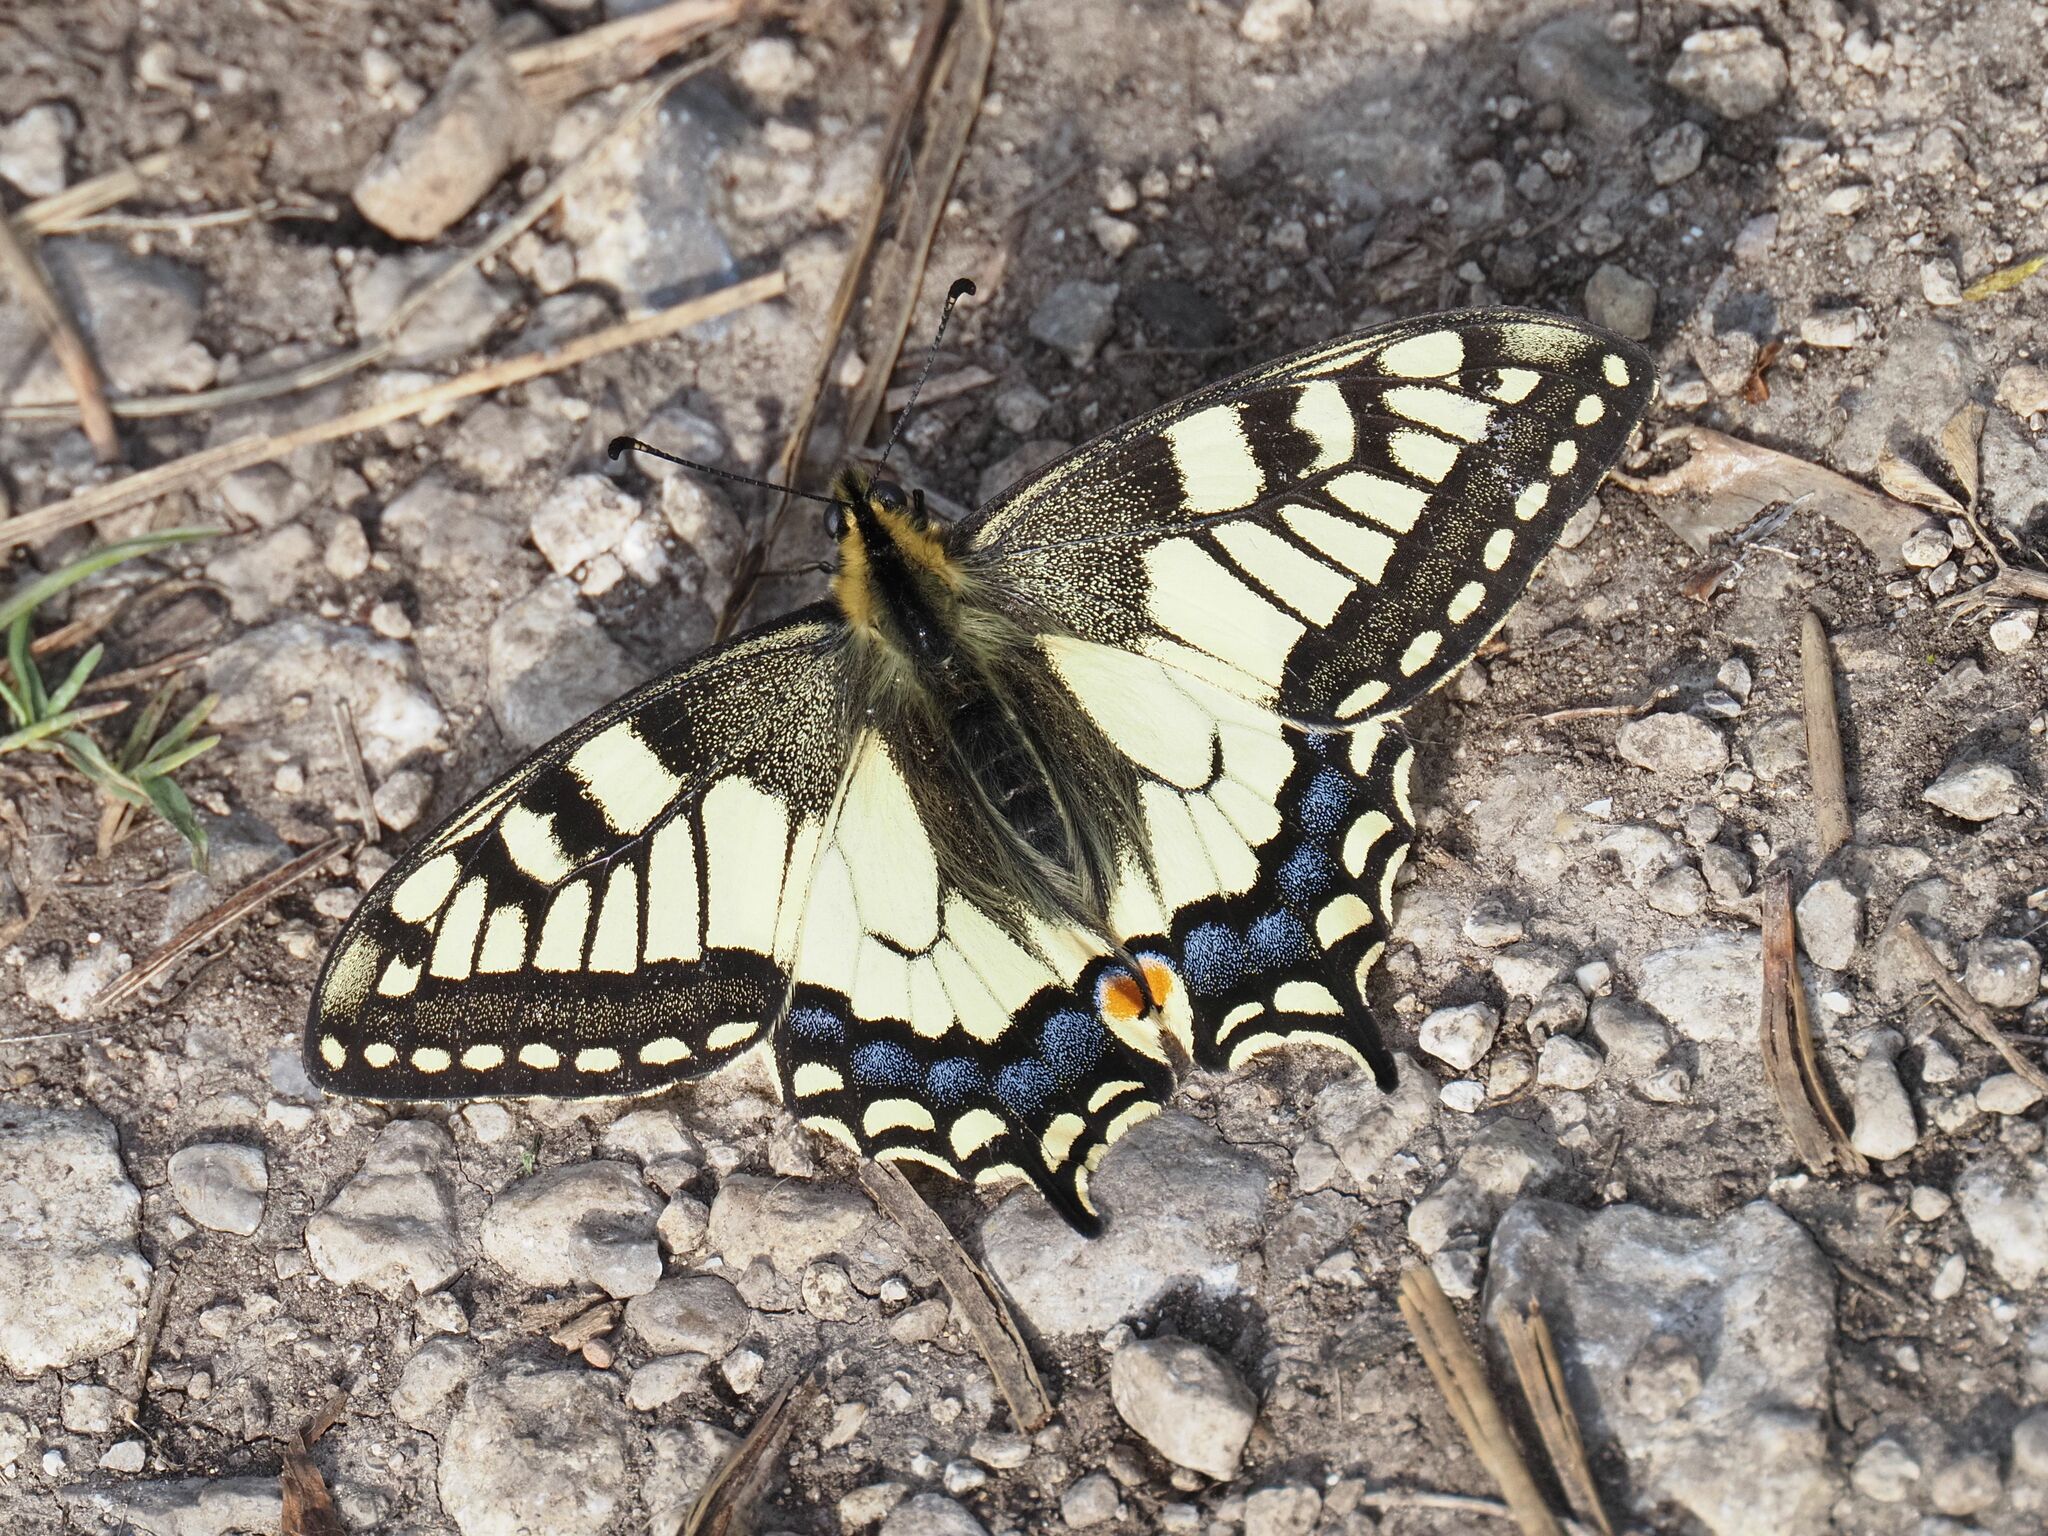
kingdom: Animalia
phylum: Arthropoda
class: Insecta
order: Lepidoptera
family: Papilionidae
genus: Papilio
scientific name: Papilio machaon
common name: Swallowtail
